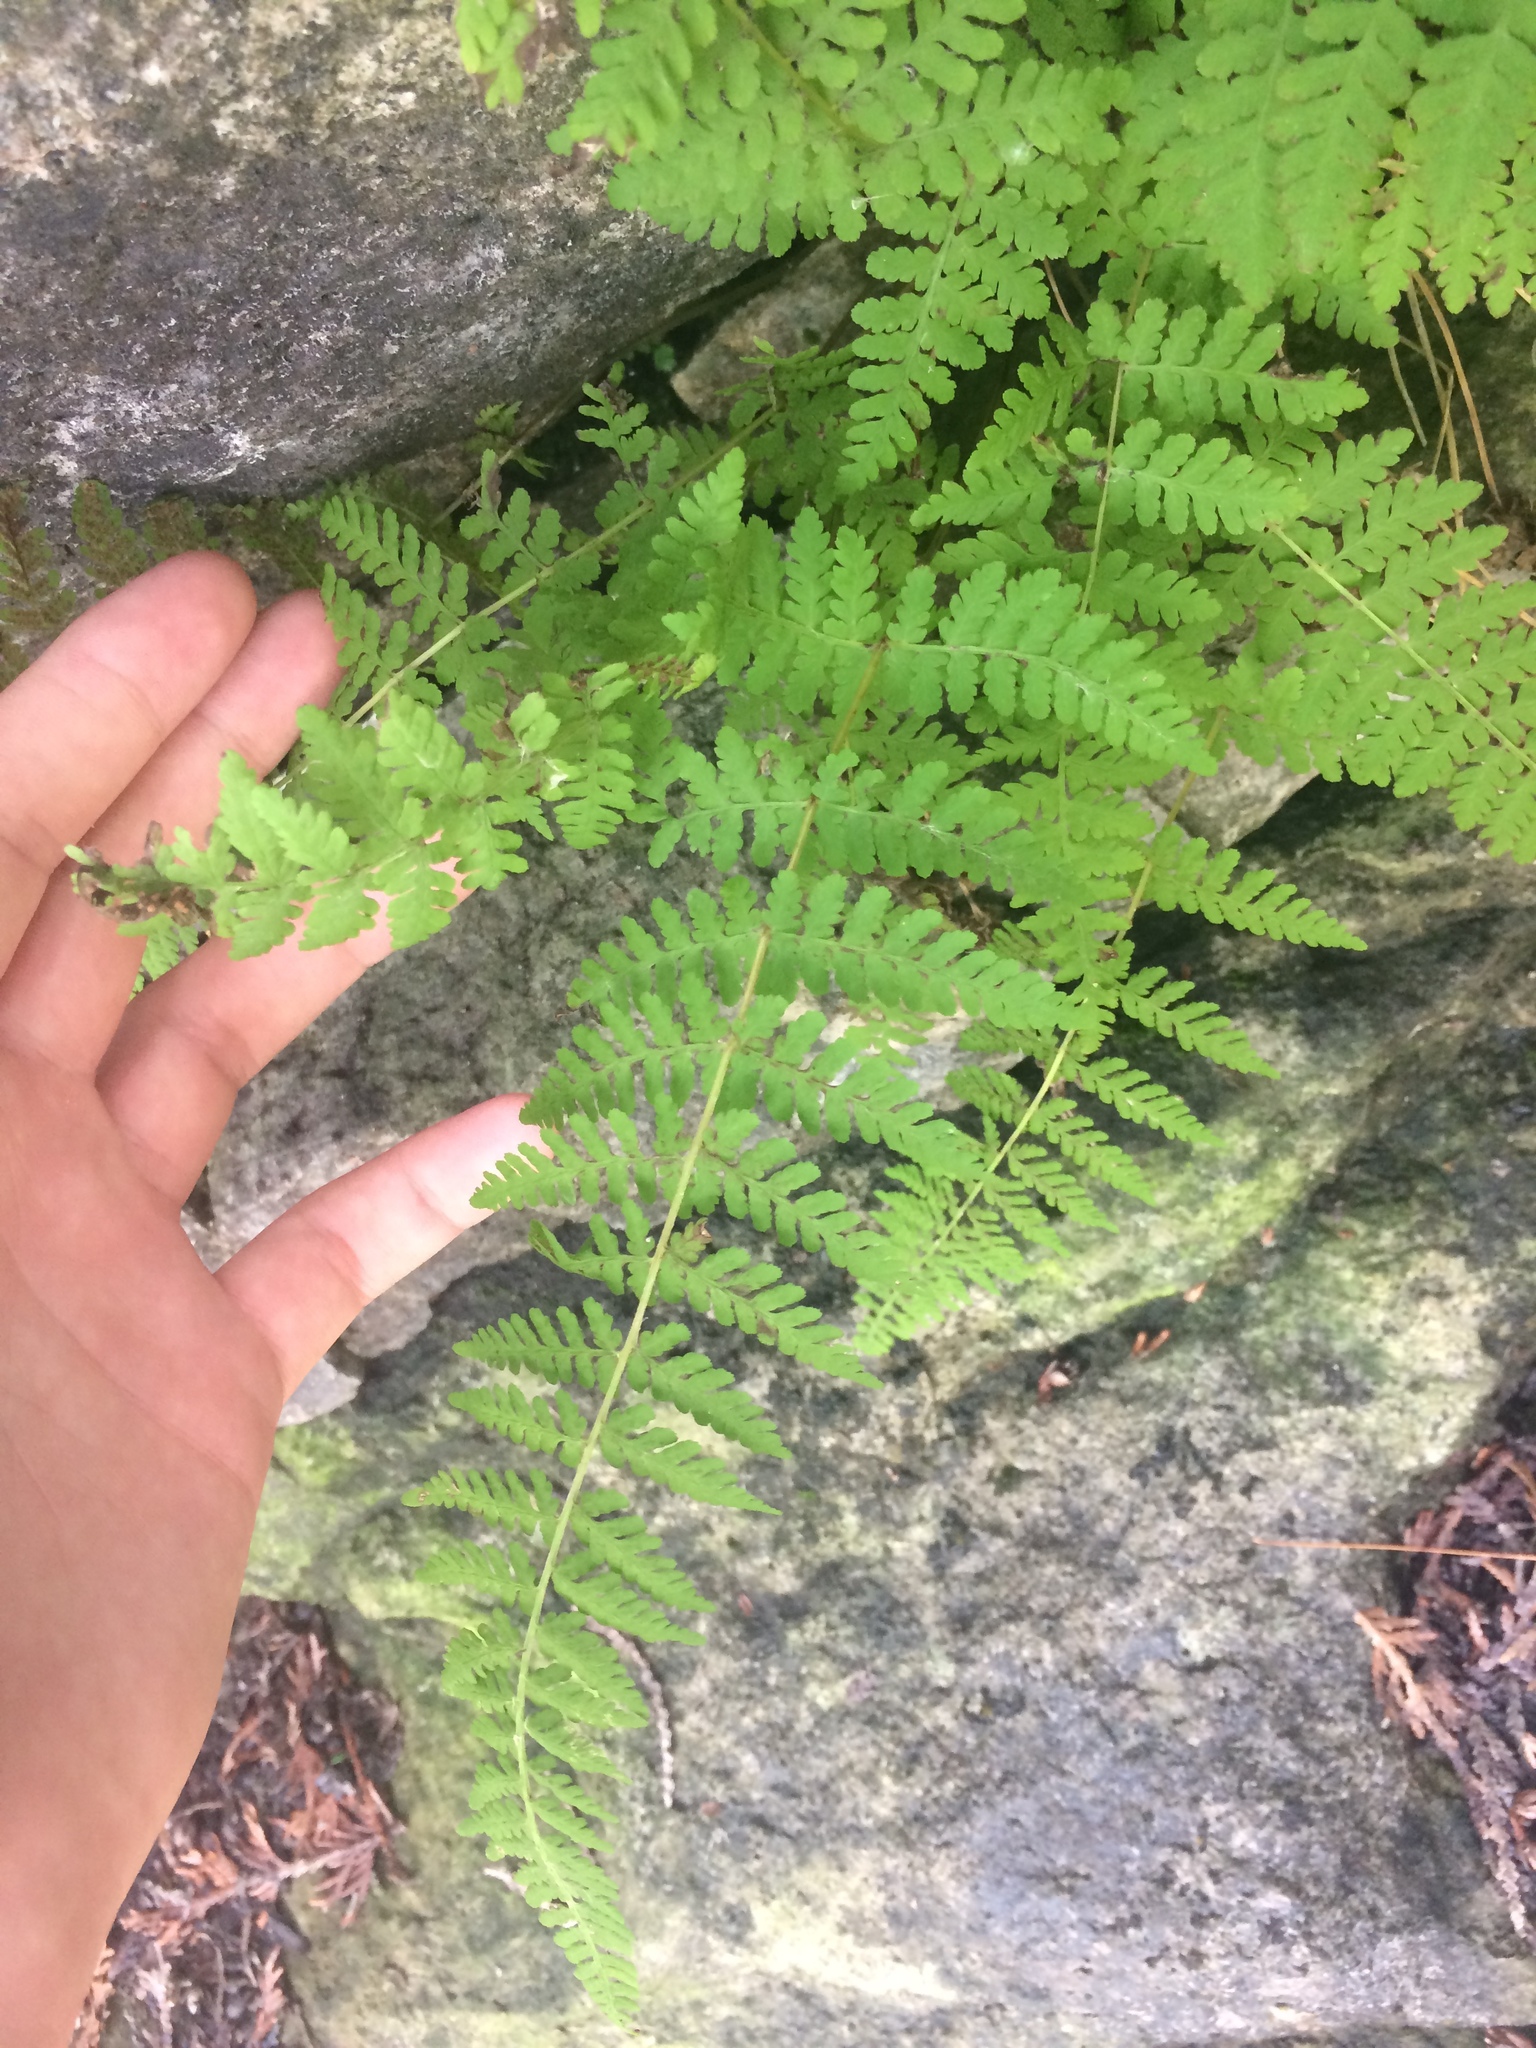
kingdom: Plantae
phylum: Tracheophyta
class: Polypodiopsida
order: Polypodiales
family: Cystopteridaceae
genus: Cystopteris
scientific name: Cystopteris bulbifera
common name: Bulblet bladder fern
